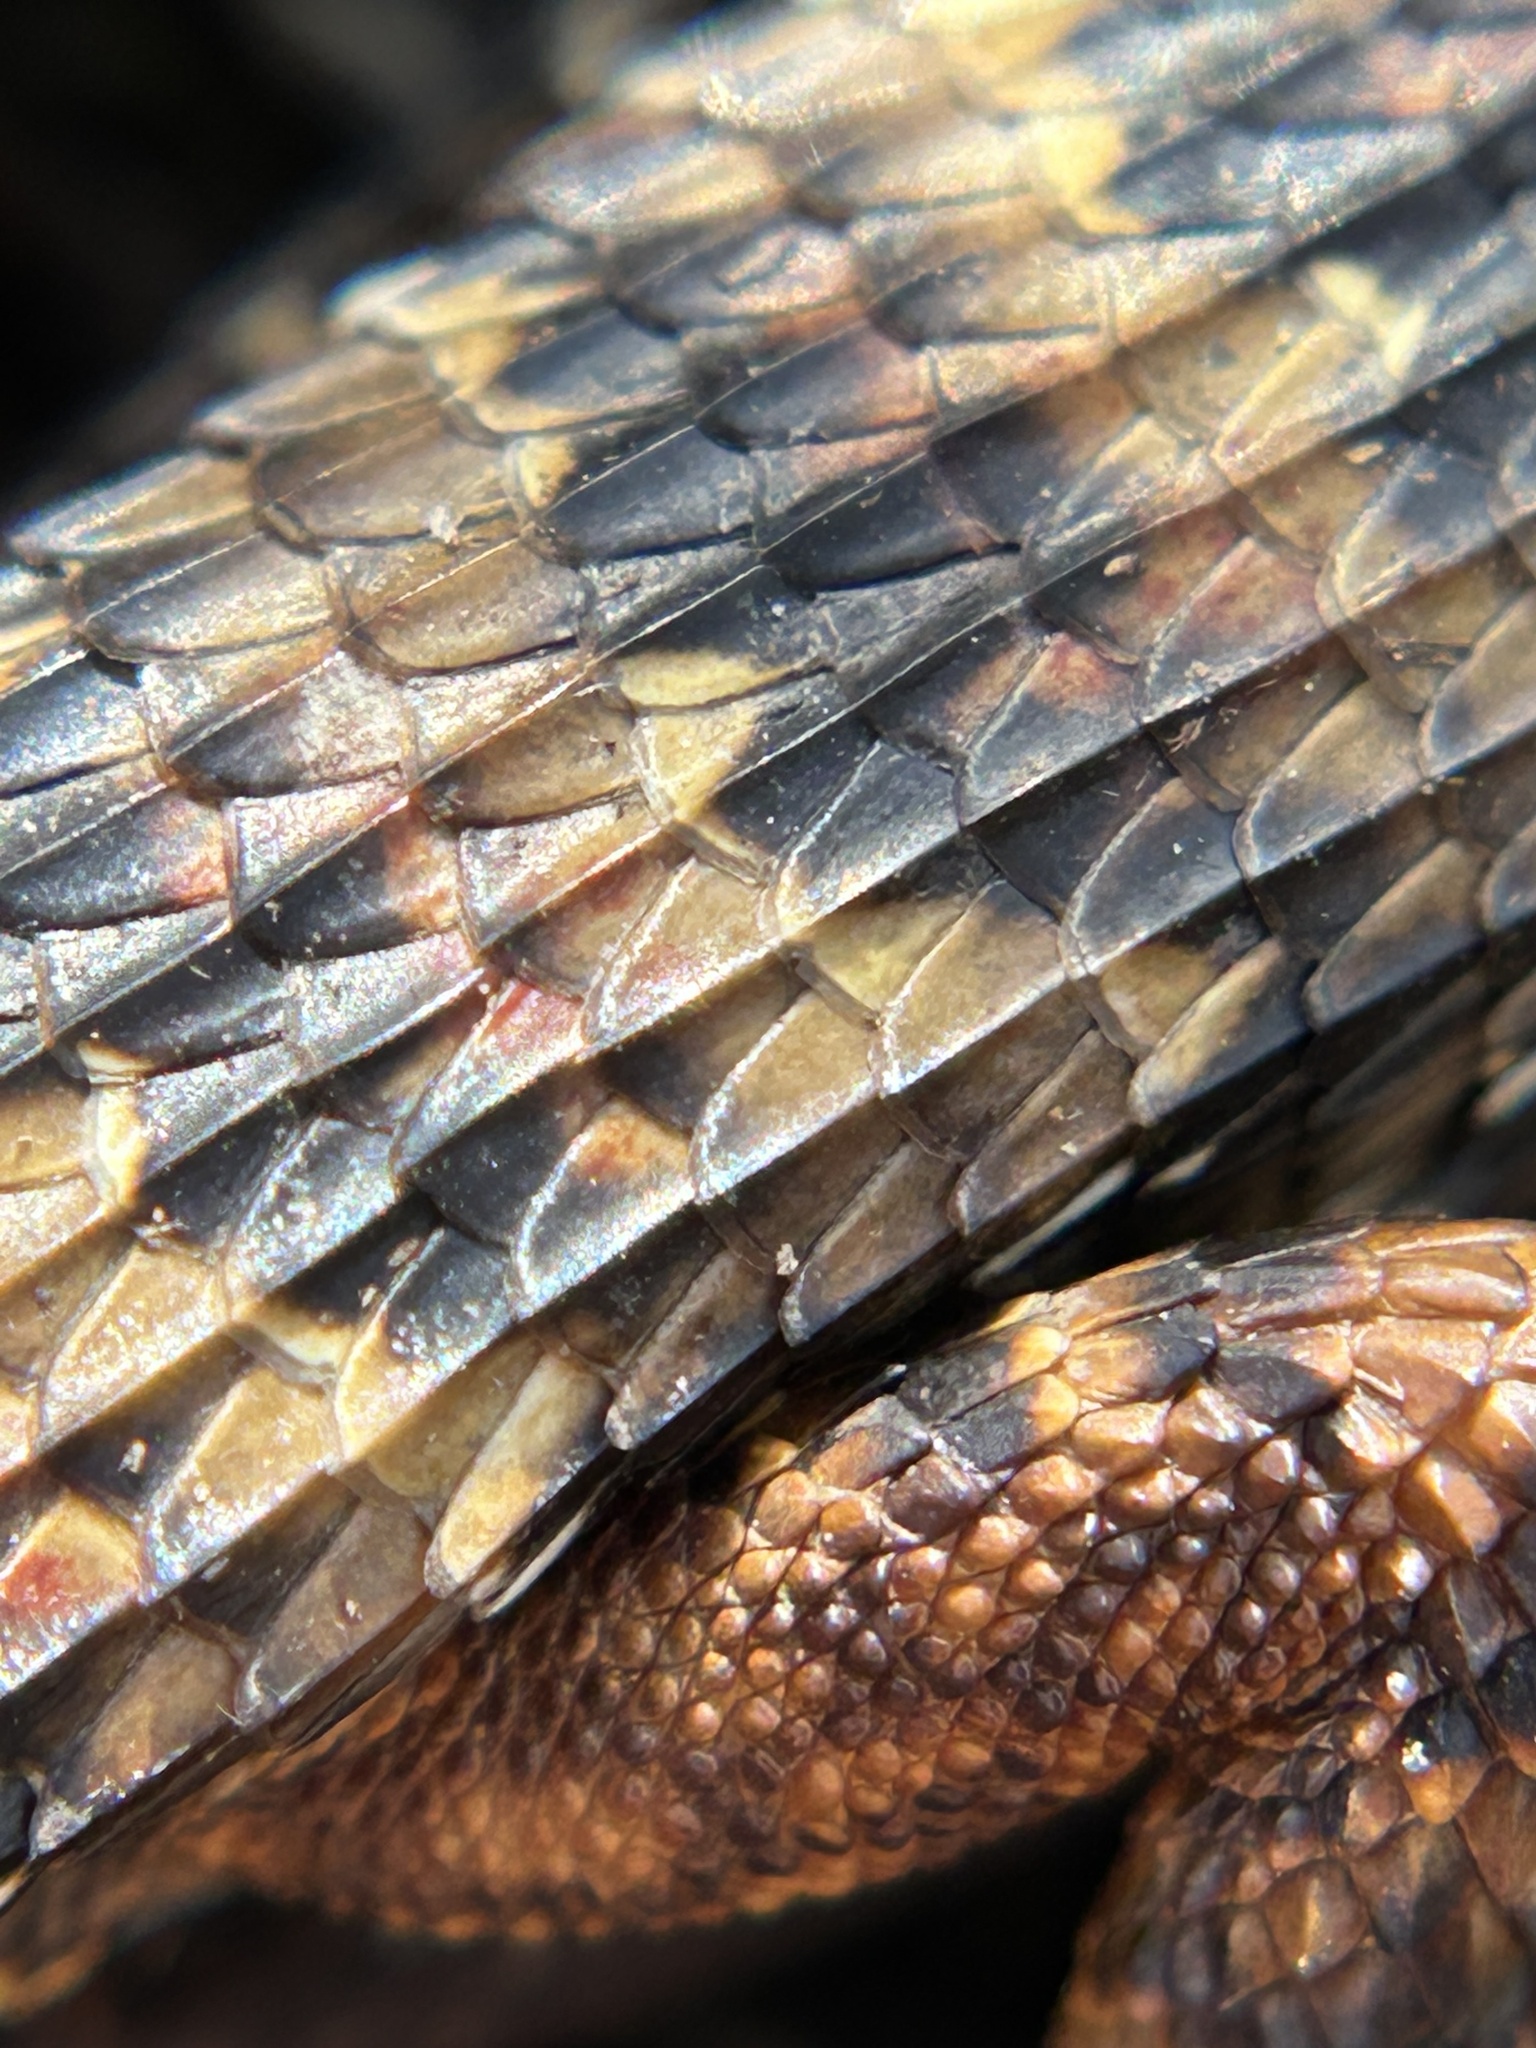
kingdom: Animalia
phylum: Chordata
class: Squamata
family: Anguidae
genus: Elgaria
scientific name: Elgaria multicarinata
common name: Southern alligator lizard
